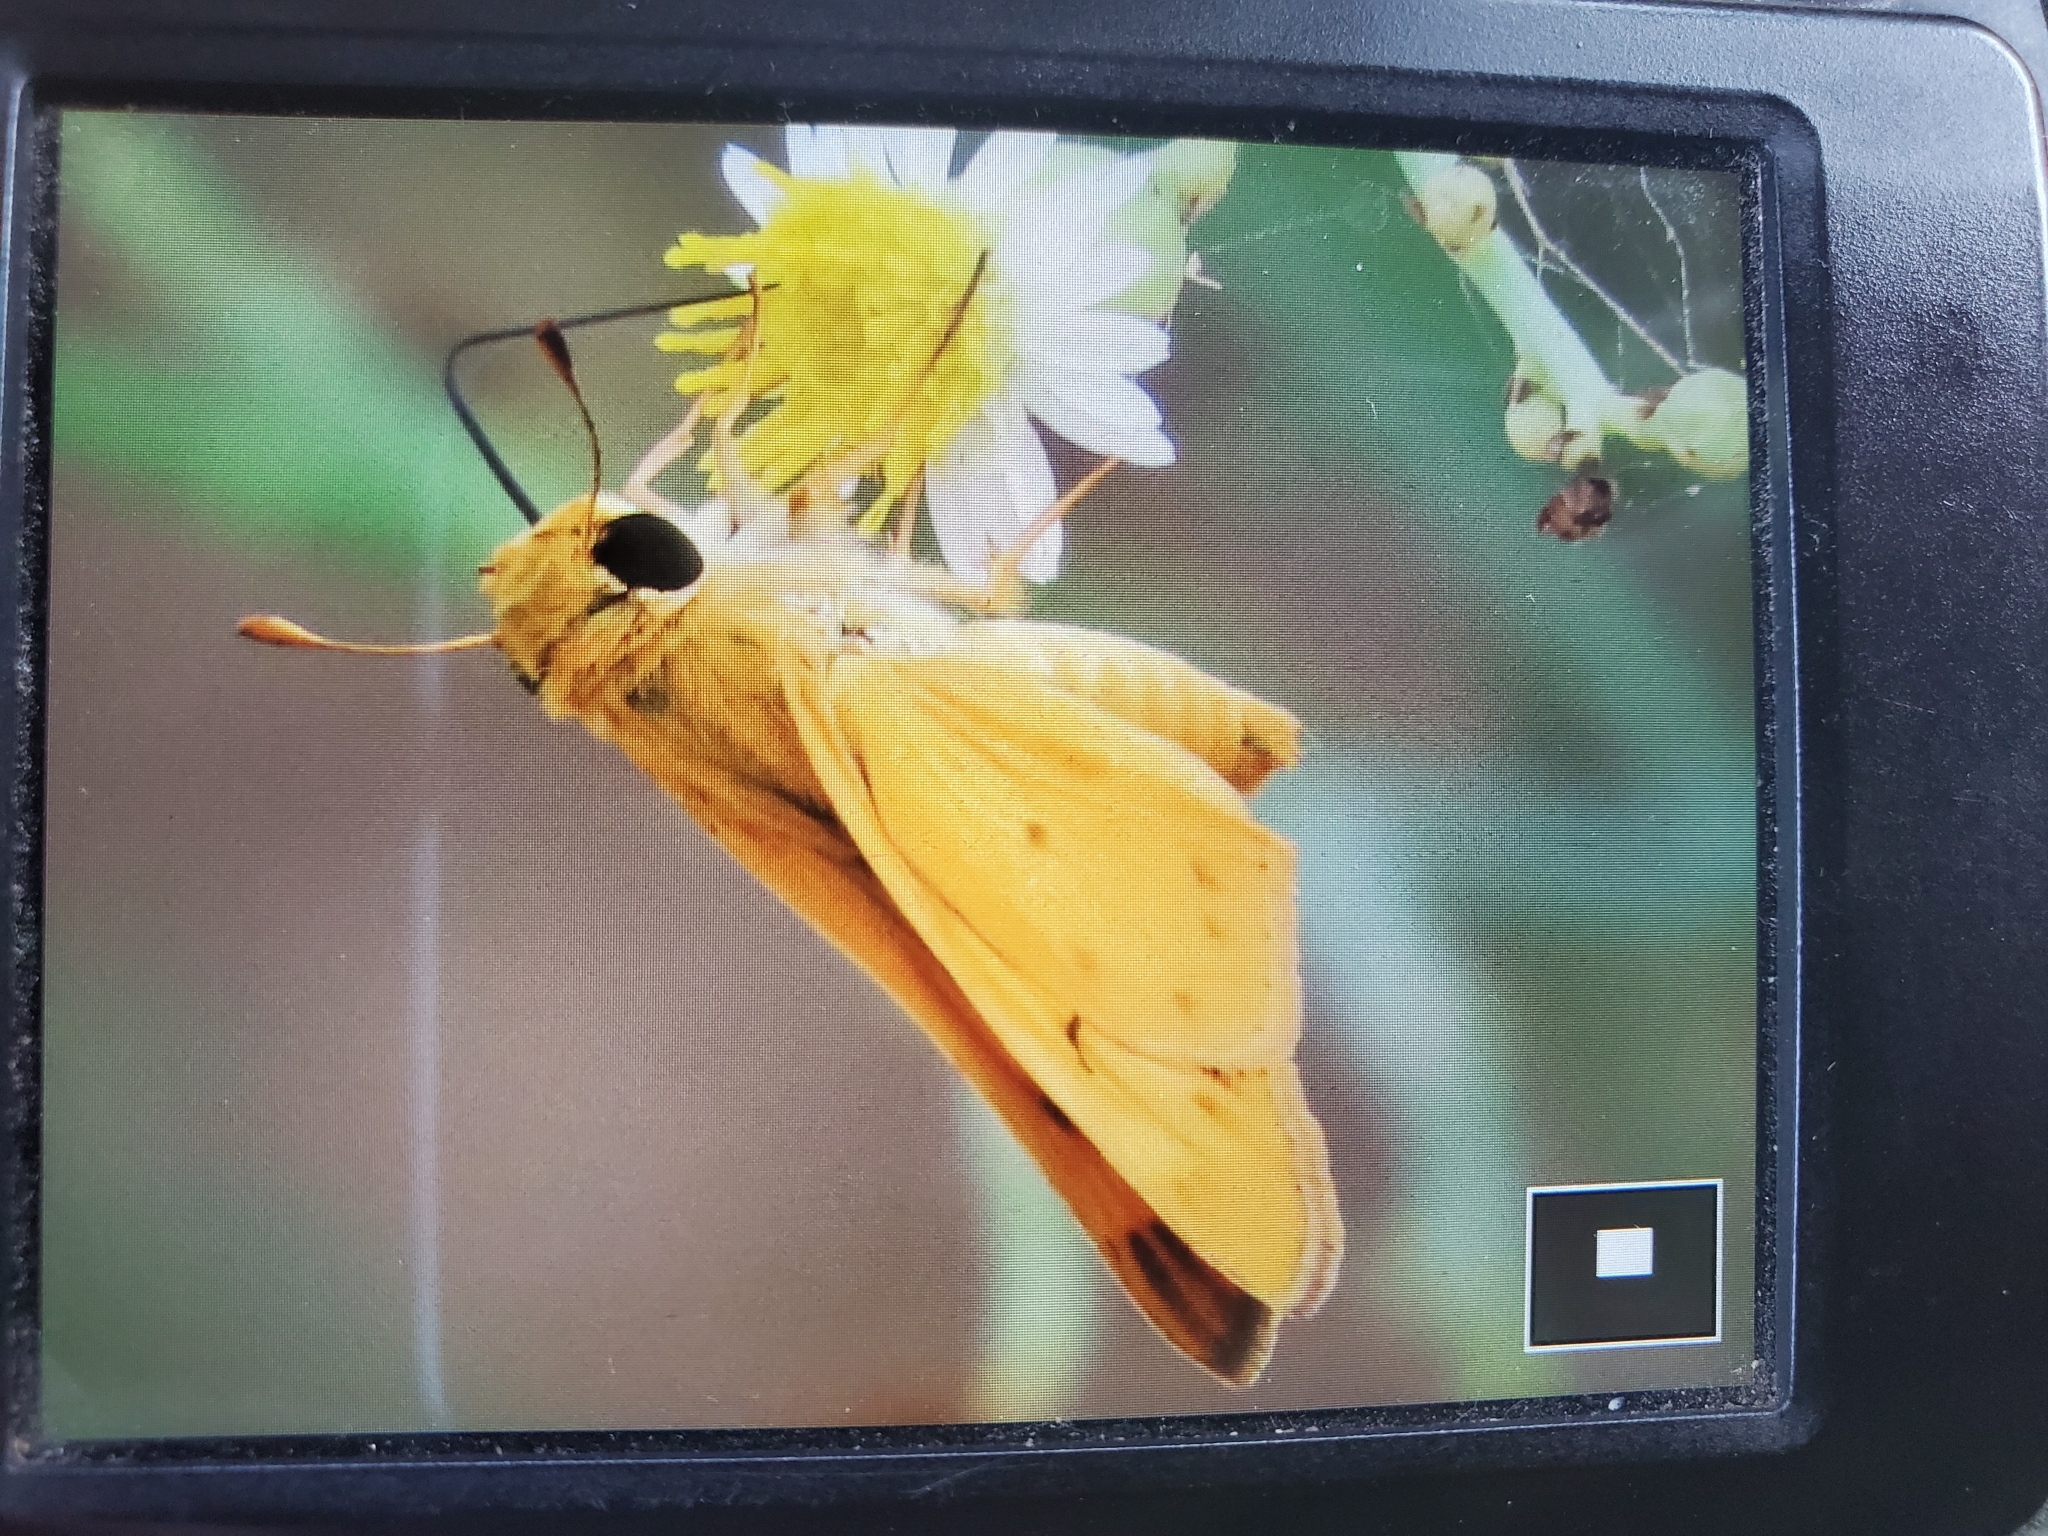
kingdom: Animalia
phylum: Arthropoda
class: Insecta
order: Lepidoptera
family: Hesperiidae
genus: Hylephila
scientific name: Hylephila phyleus
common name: Fiery skipper
